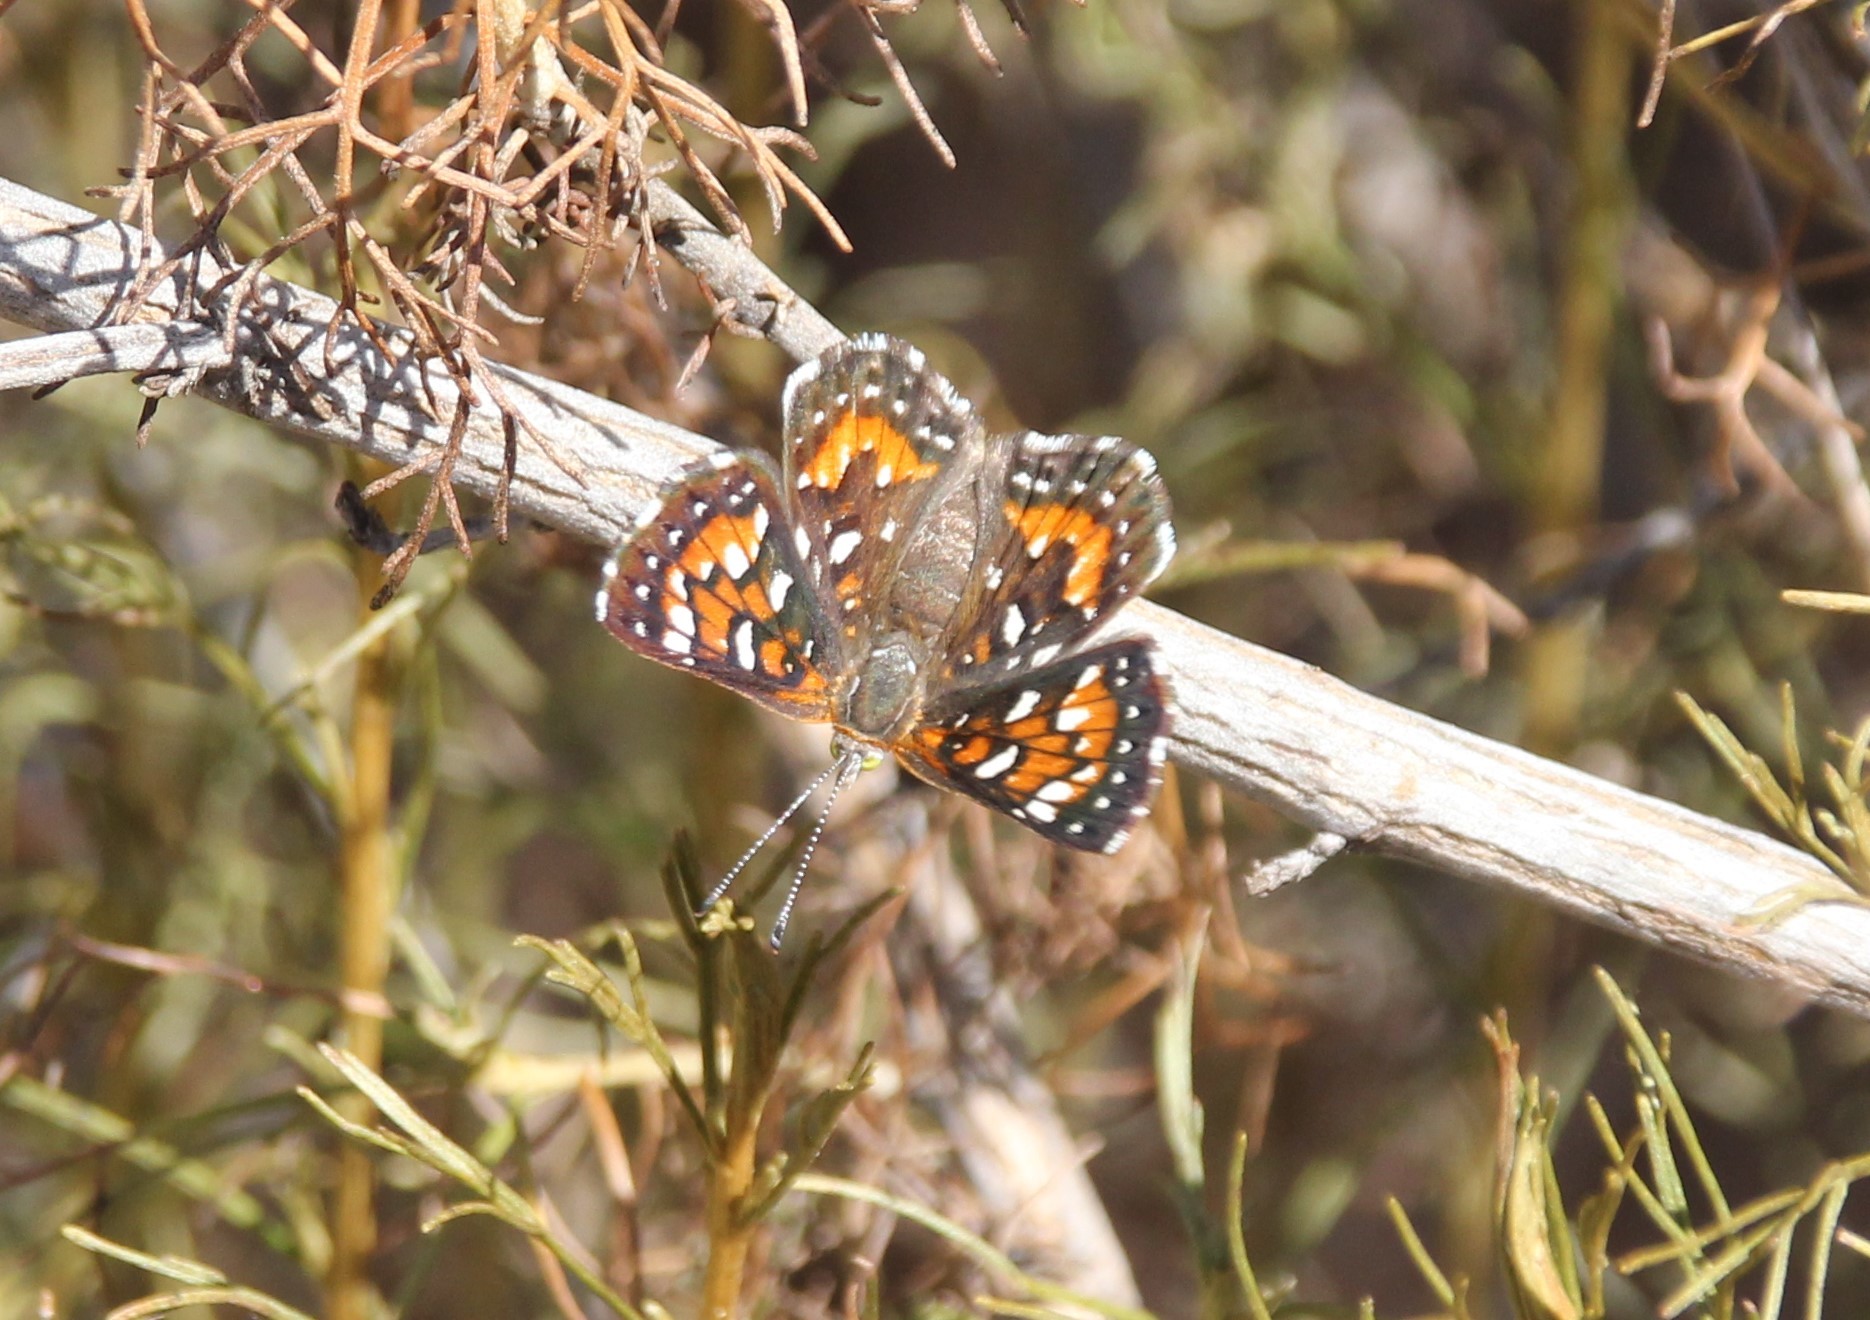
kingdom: Animalia
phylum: Arthropoda
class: Insecta
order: Lepidoptera
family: Riodinidae
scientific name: Riodinidae
